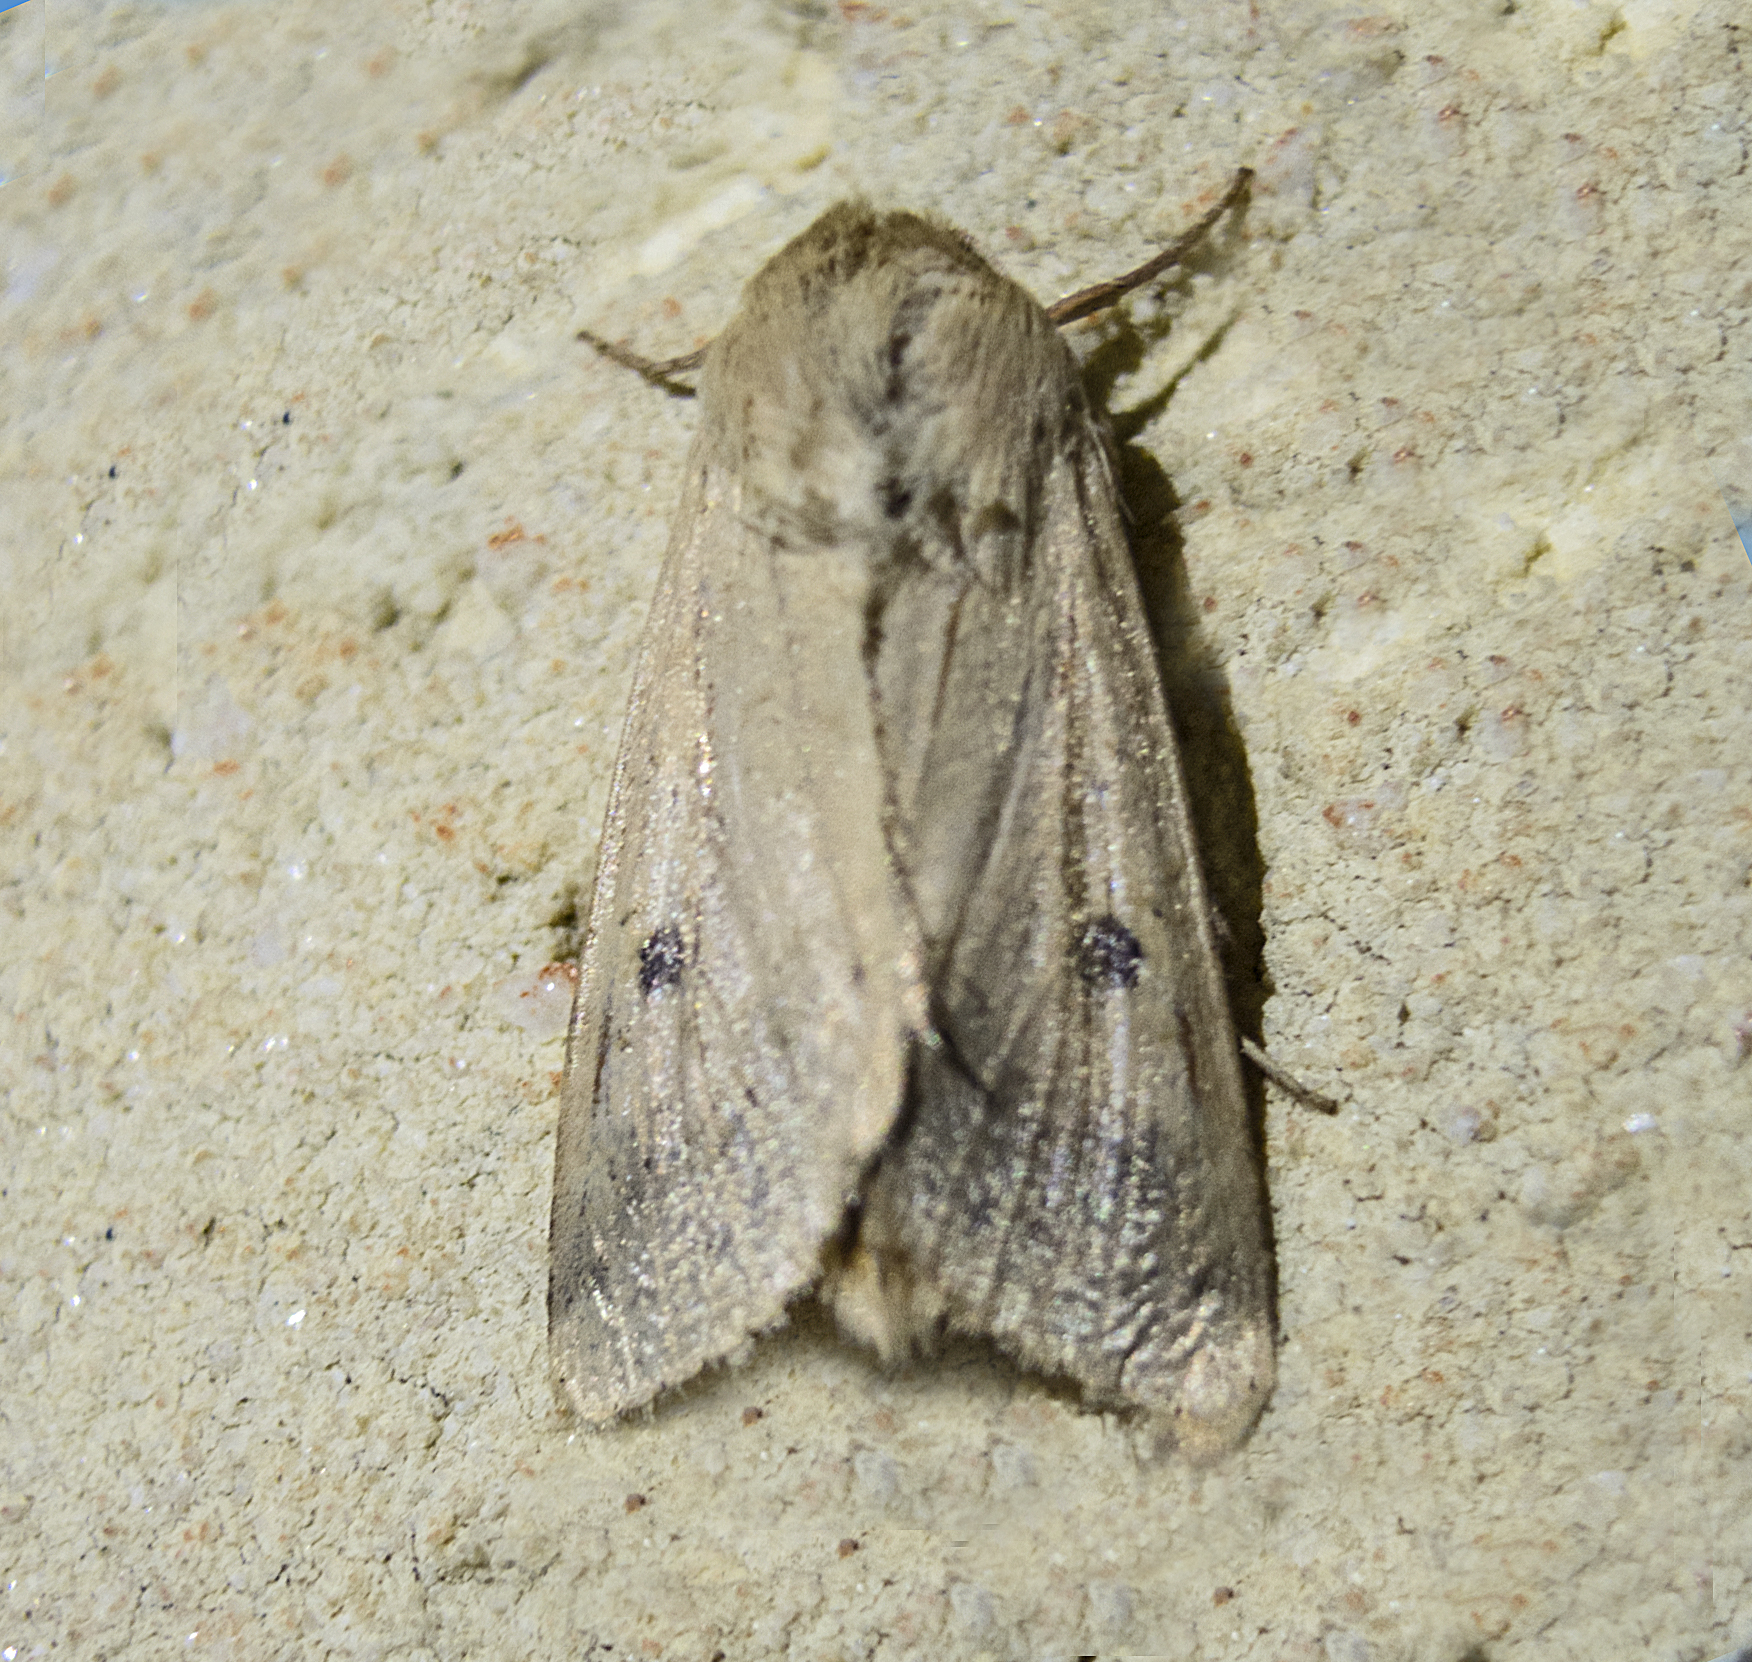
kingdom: Animalia
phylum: Arthropoda
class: Insecta
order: Lepidoptera
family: Noctuidae
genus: Helicoverpa
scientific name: Helicoverpa armigera
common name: Cotton bollworm
